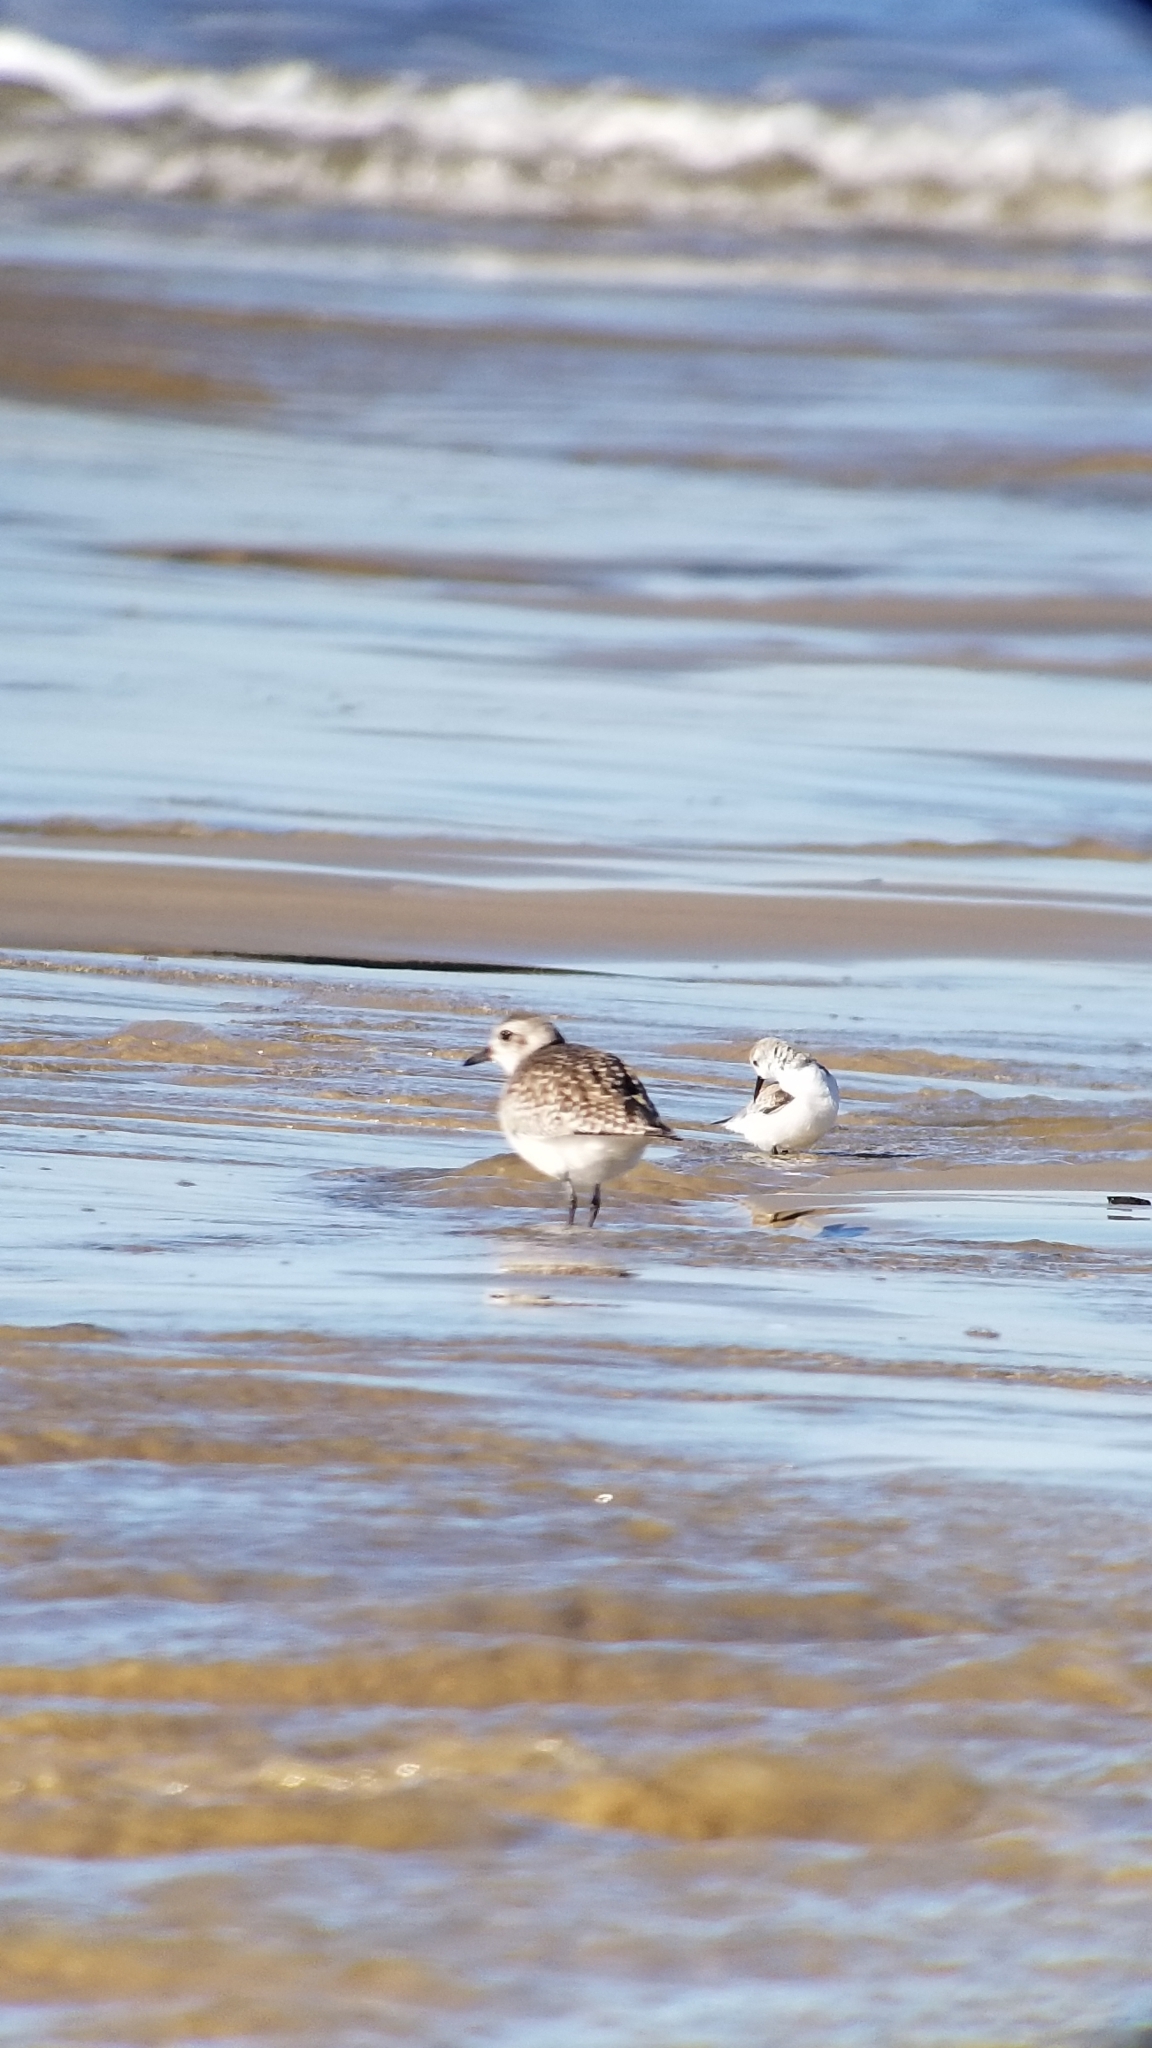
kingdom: Animalia
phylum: Chordata
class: Aves
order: Charadriiformes
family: Scolopacidae
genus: Calidris
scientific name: Calidris alba
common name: Sanderling
